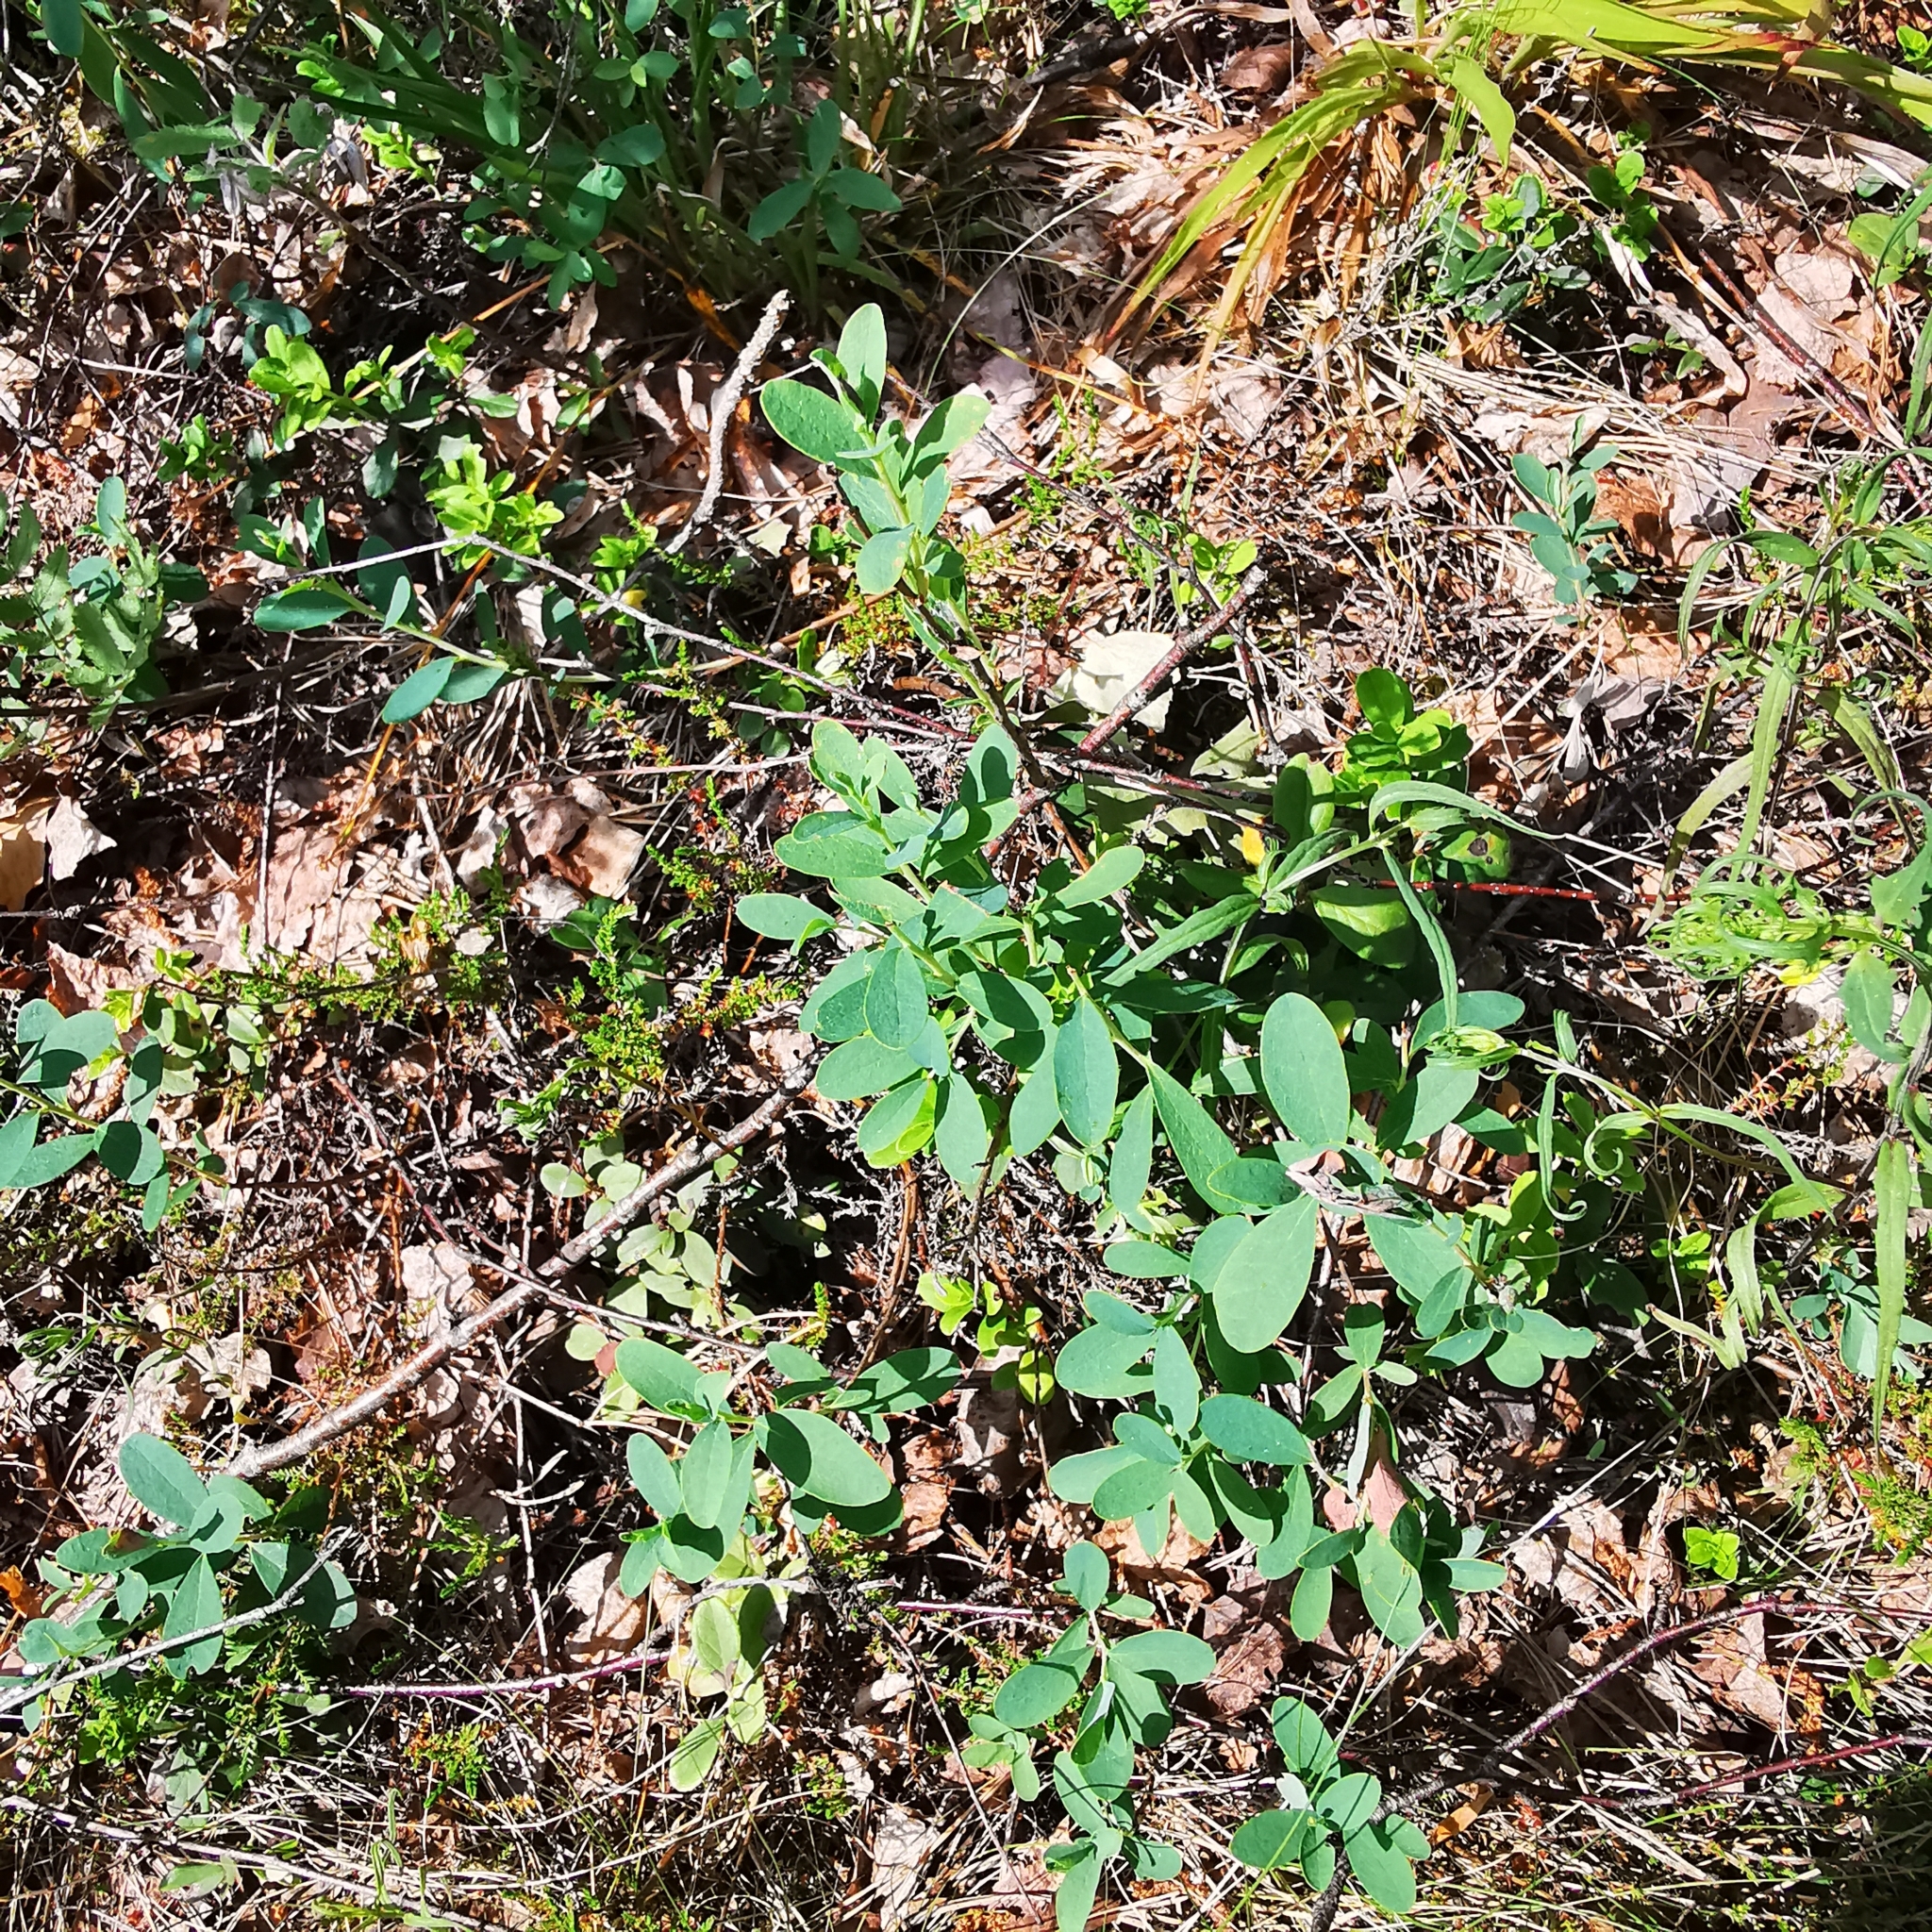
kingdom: Plantae
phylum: Tracheophyta
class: Magnoliopsida
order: Ericales
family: Ericaceae
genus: Vaccinium
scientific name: Vaccinium uliginosum
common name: Bog bilberry
